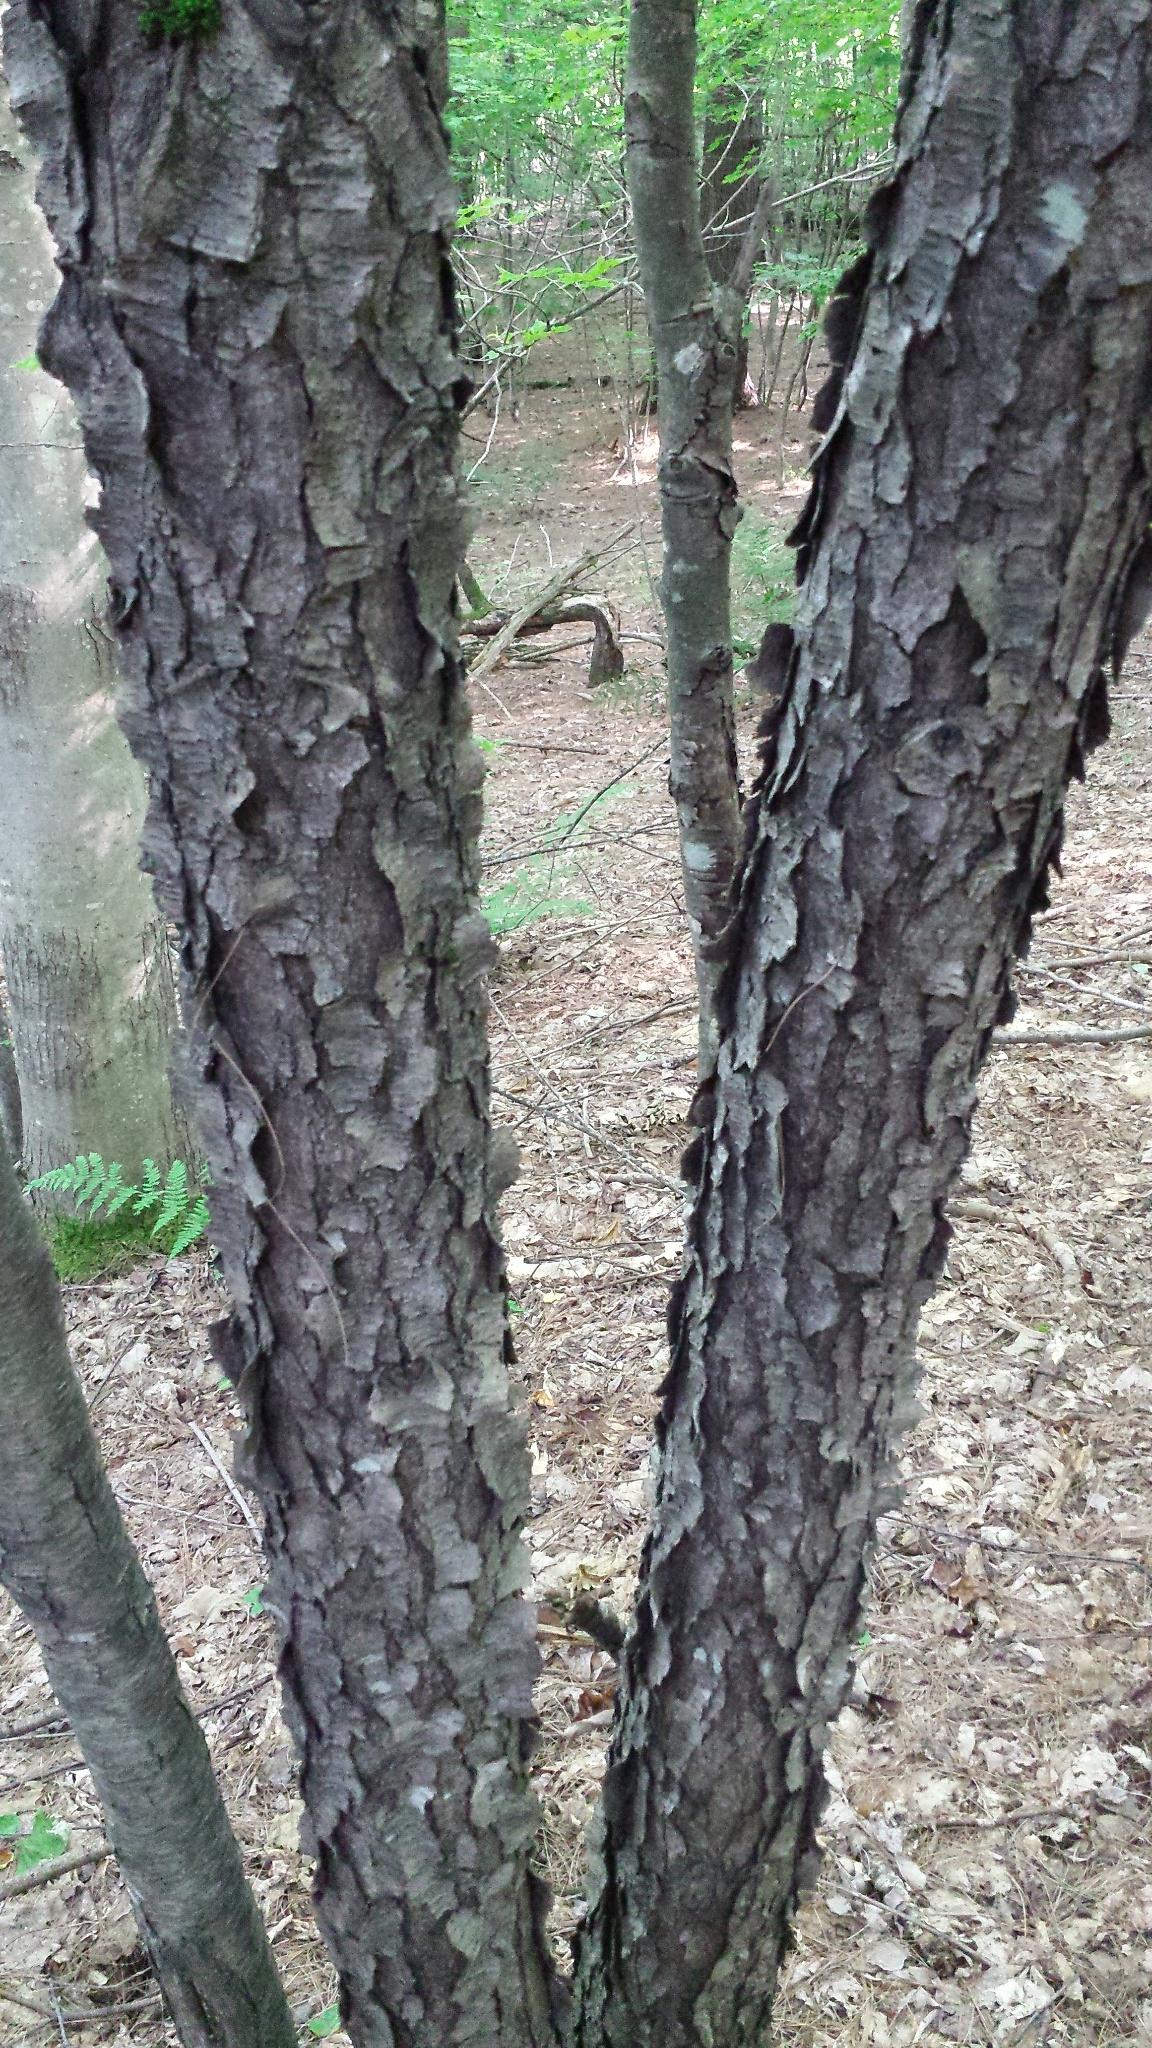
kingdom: Plantae
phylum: Tracheophyta
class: Magnoliopsida
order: Rosales
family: Rosaceae
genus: Prunus
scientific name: Prunus serotina
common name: Black cherry
